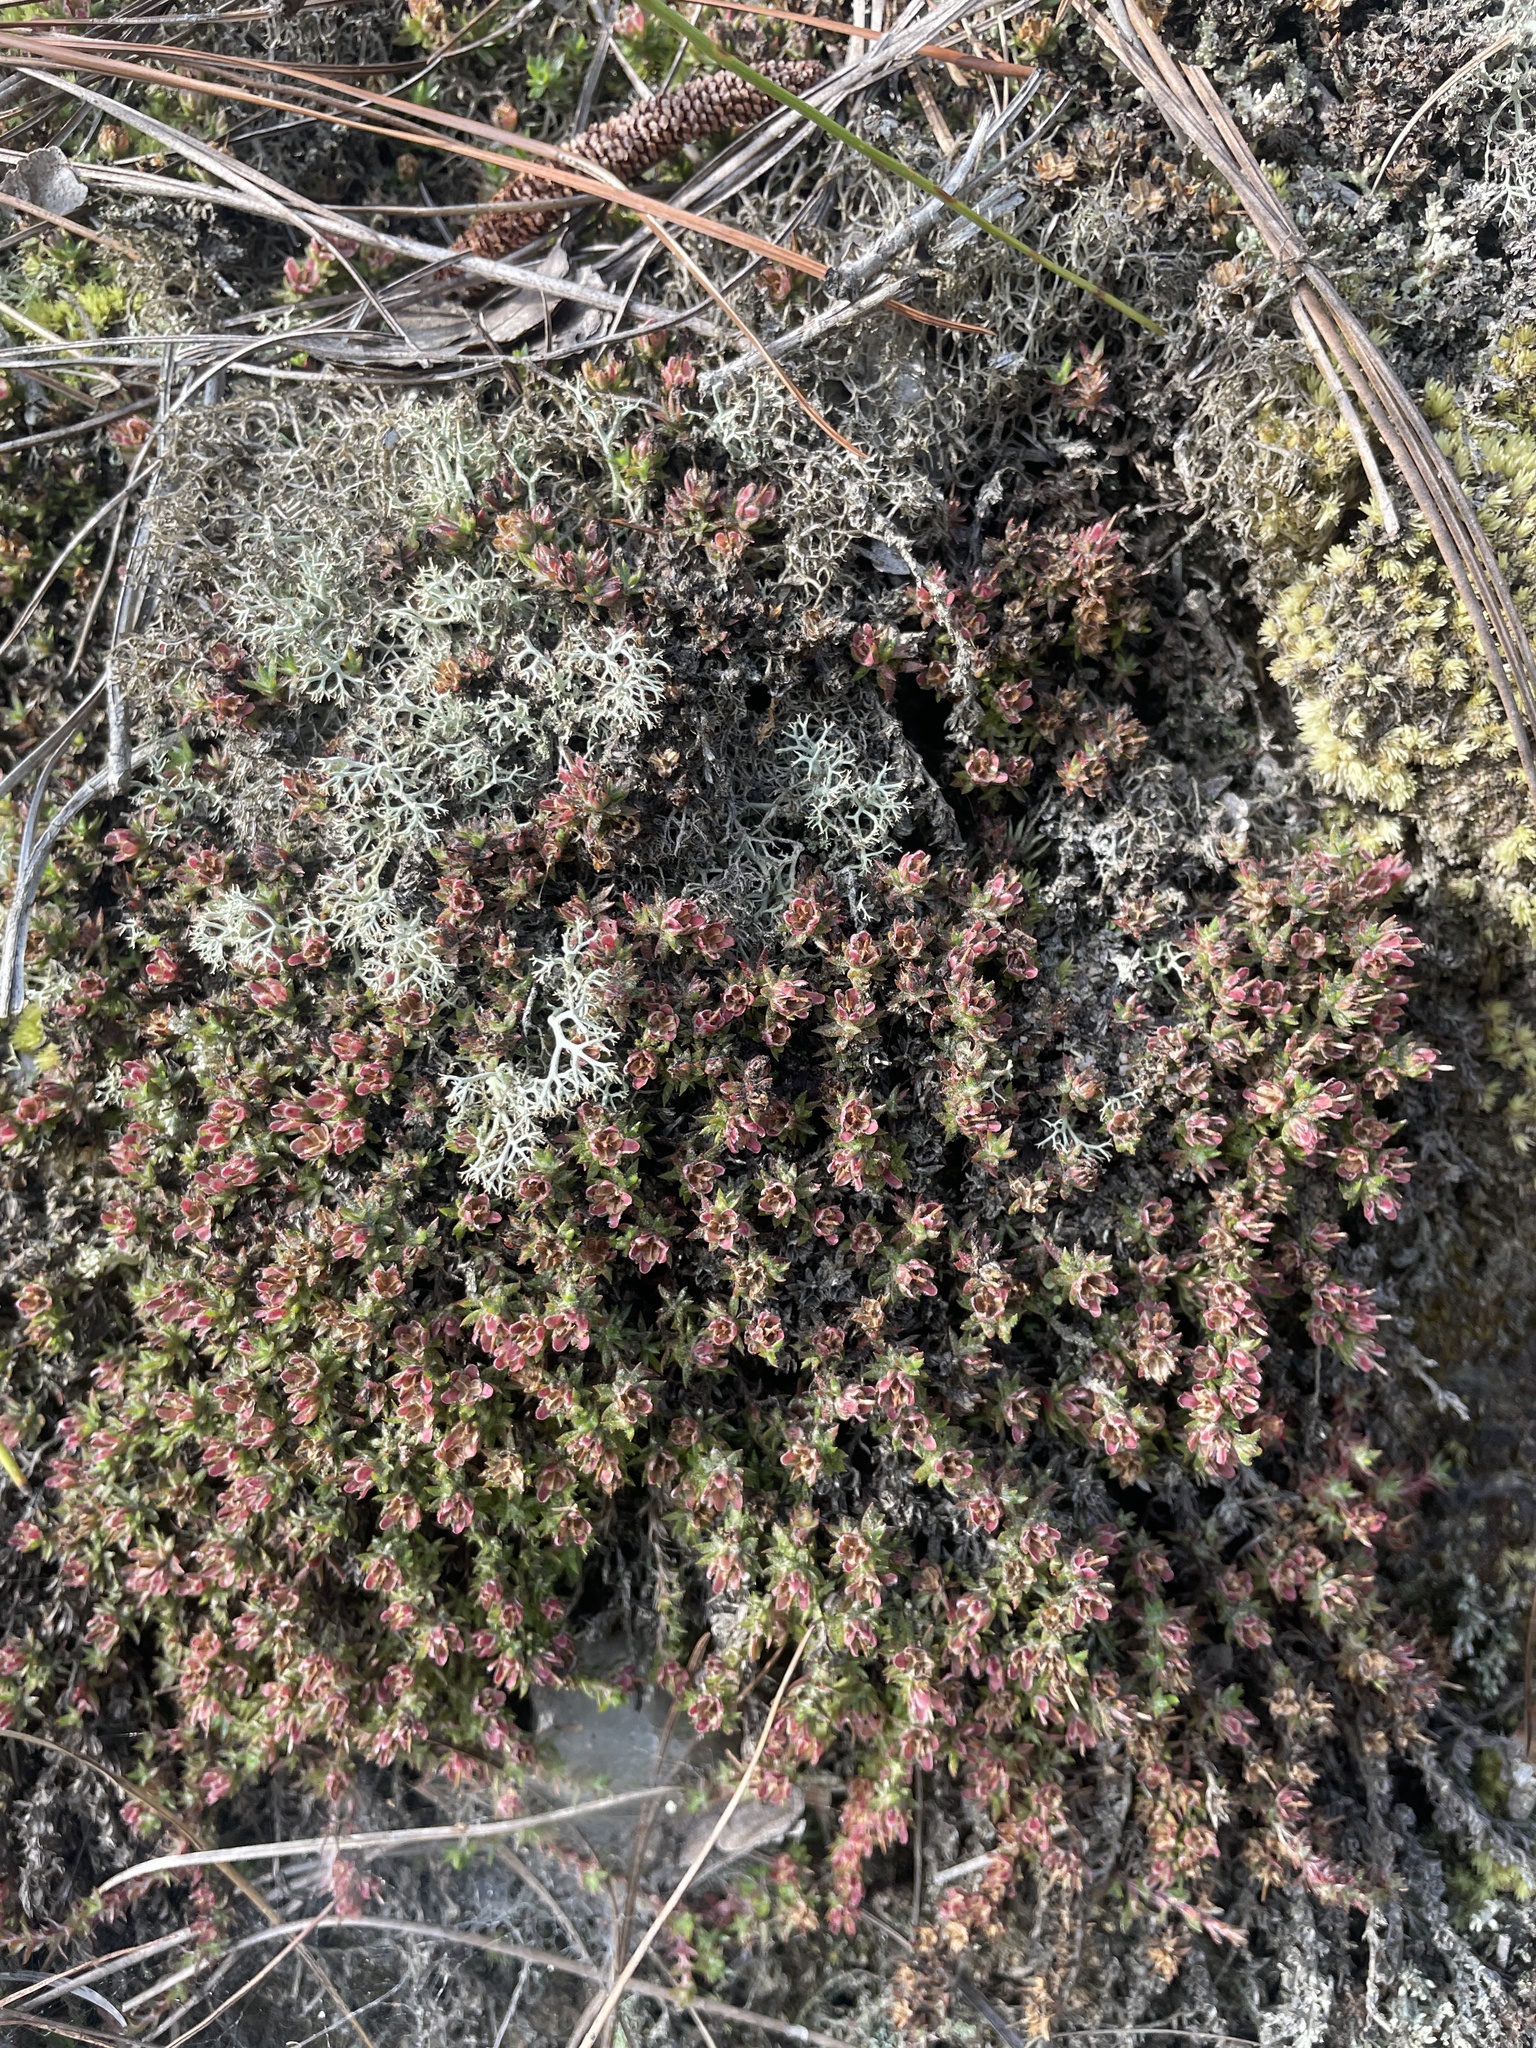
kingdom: Plantae
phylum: Tracheophyta
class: Magnoliopsida
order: Ericales
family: Diapensiaceae
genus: Pyxidanthera
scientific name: Pyxidanthera brevifolia
